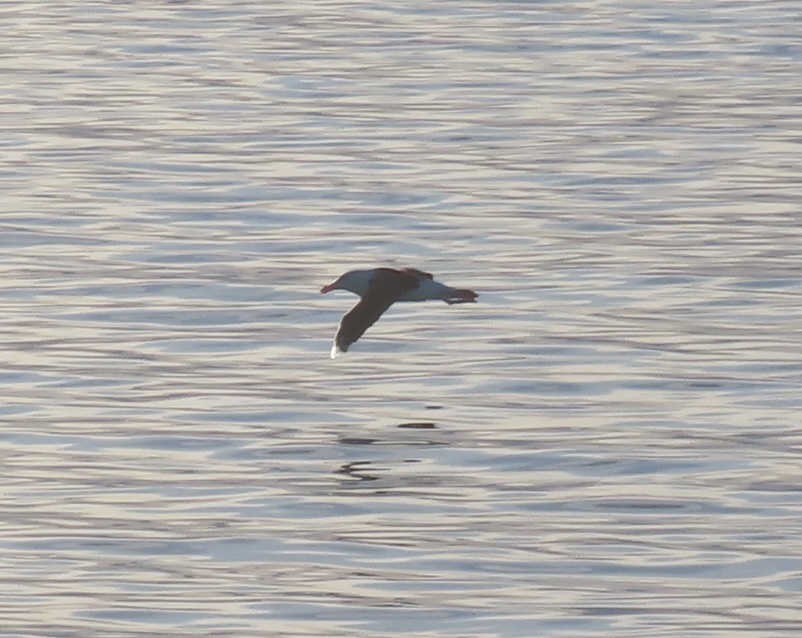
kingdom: Animalia
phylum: Chordata
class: Aves
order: Procellariiformes
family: Diomedeidae
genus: Thalassarche
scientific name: Thalassarche melanophris
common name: Black-browed albatross
